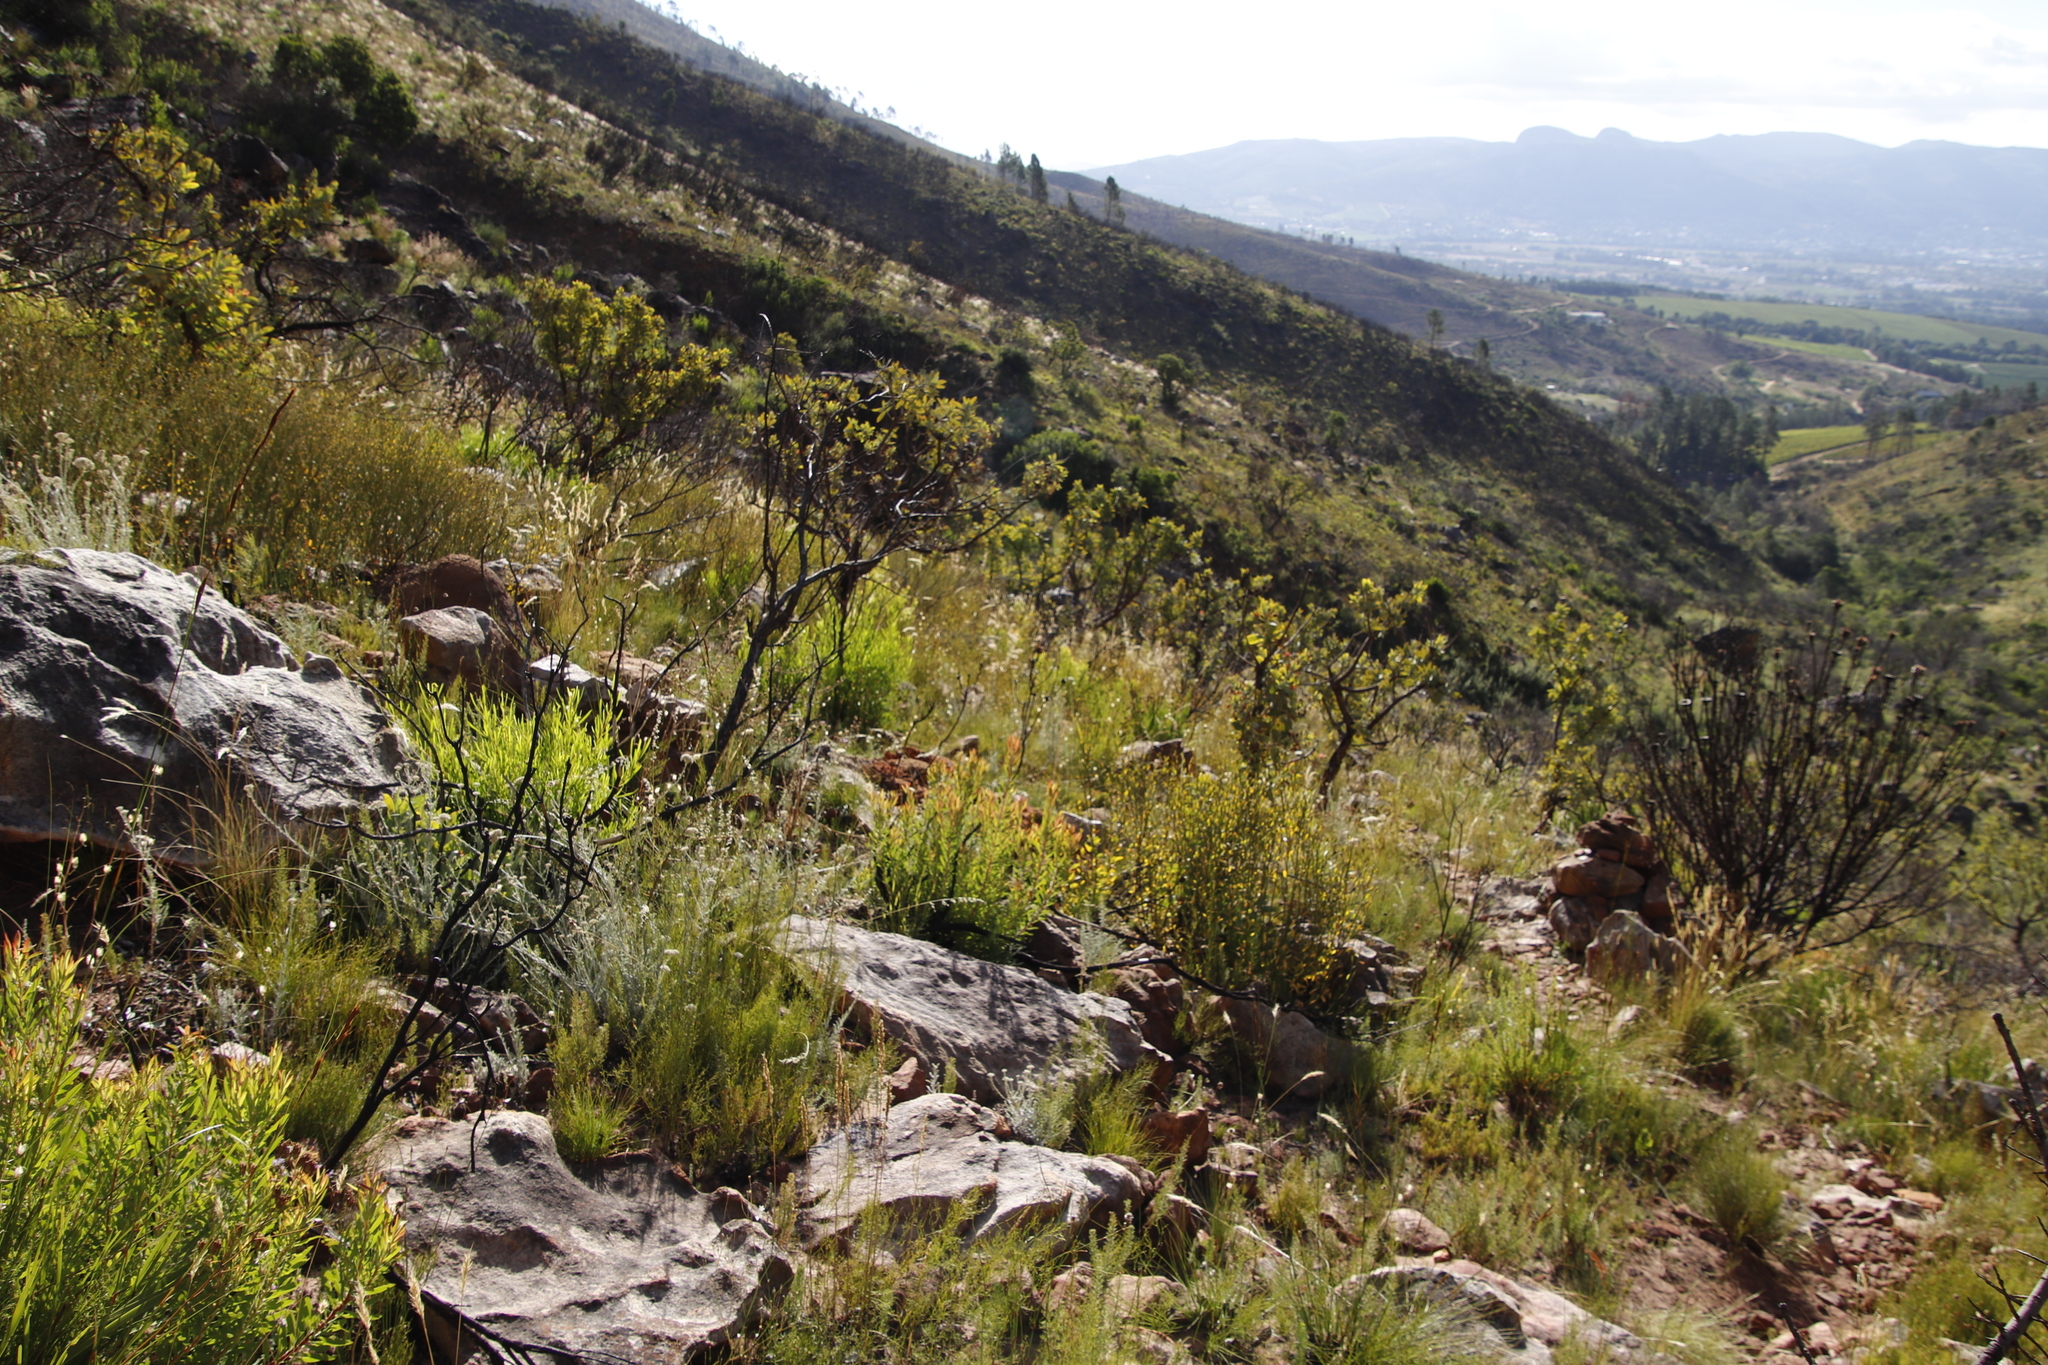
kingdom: Plantae
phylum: Tracheophyta
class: Magnoliopsida
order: Proteales
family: Proteaceae
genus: Protea
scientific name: Protea laurifolia
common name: Grey-leaf sugarbsh
